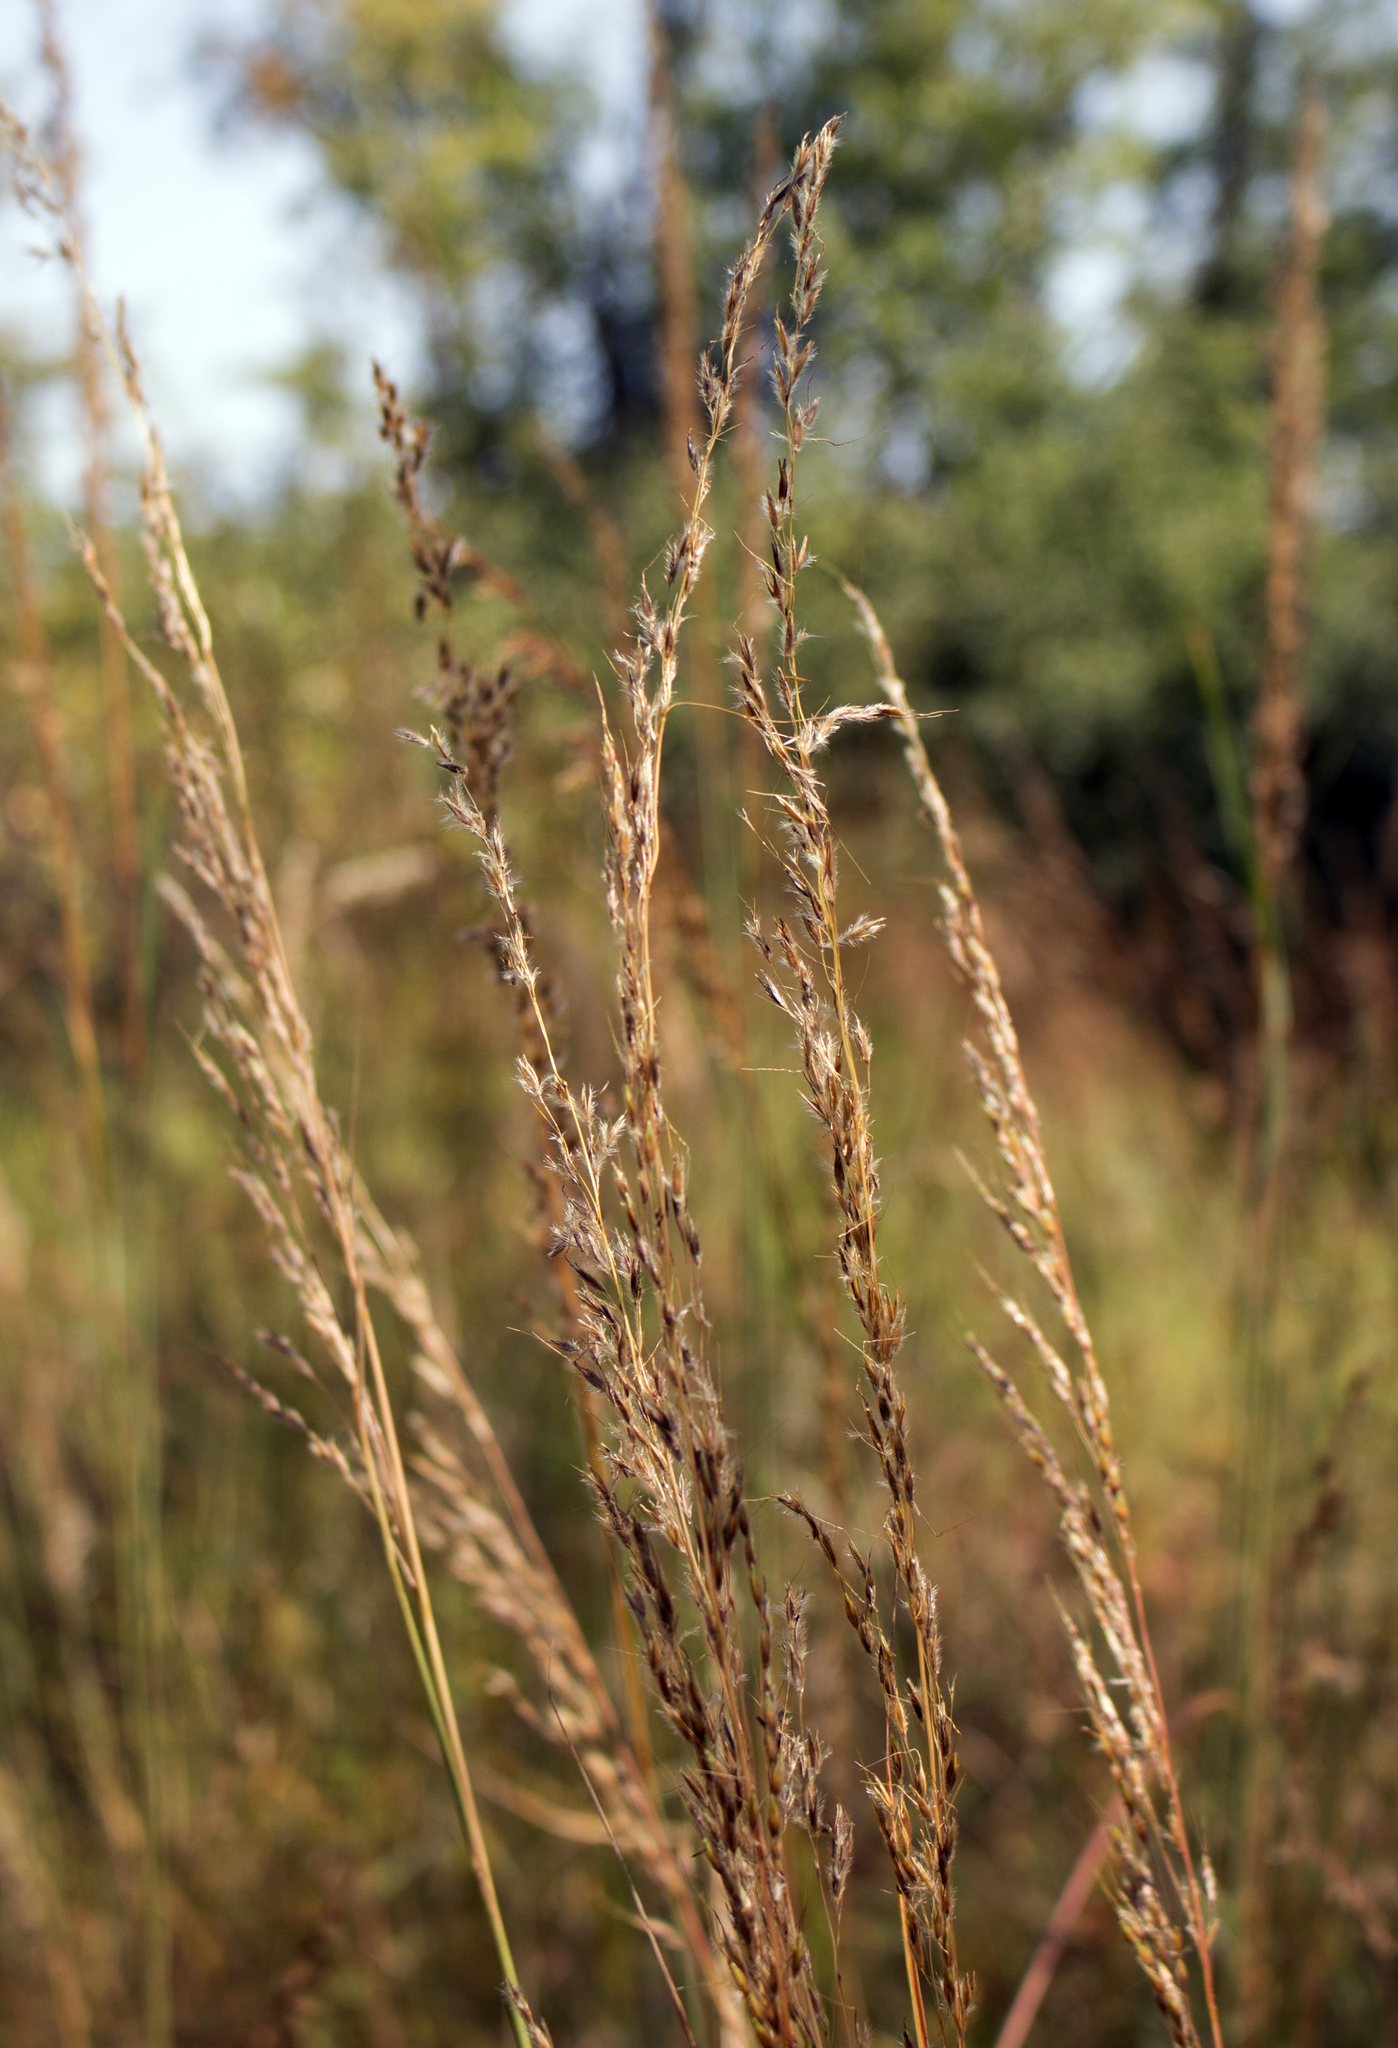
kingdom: Plantae
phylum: Tracheophyta
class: Liliopsida
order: Poales
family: Poaceae
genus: Sorghastrum
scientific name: Sorghastrum nutans
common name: Indian grass
